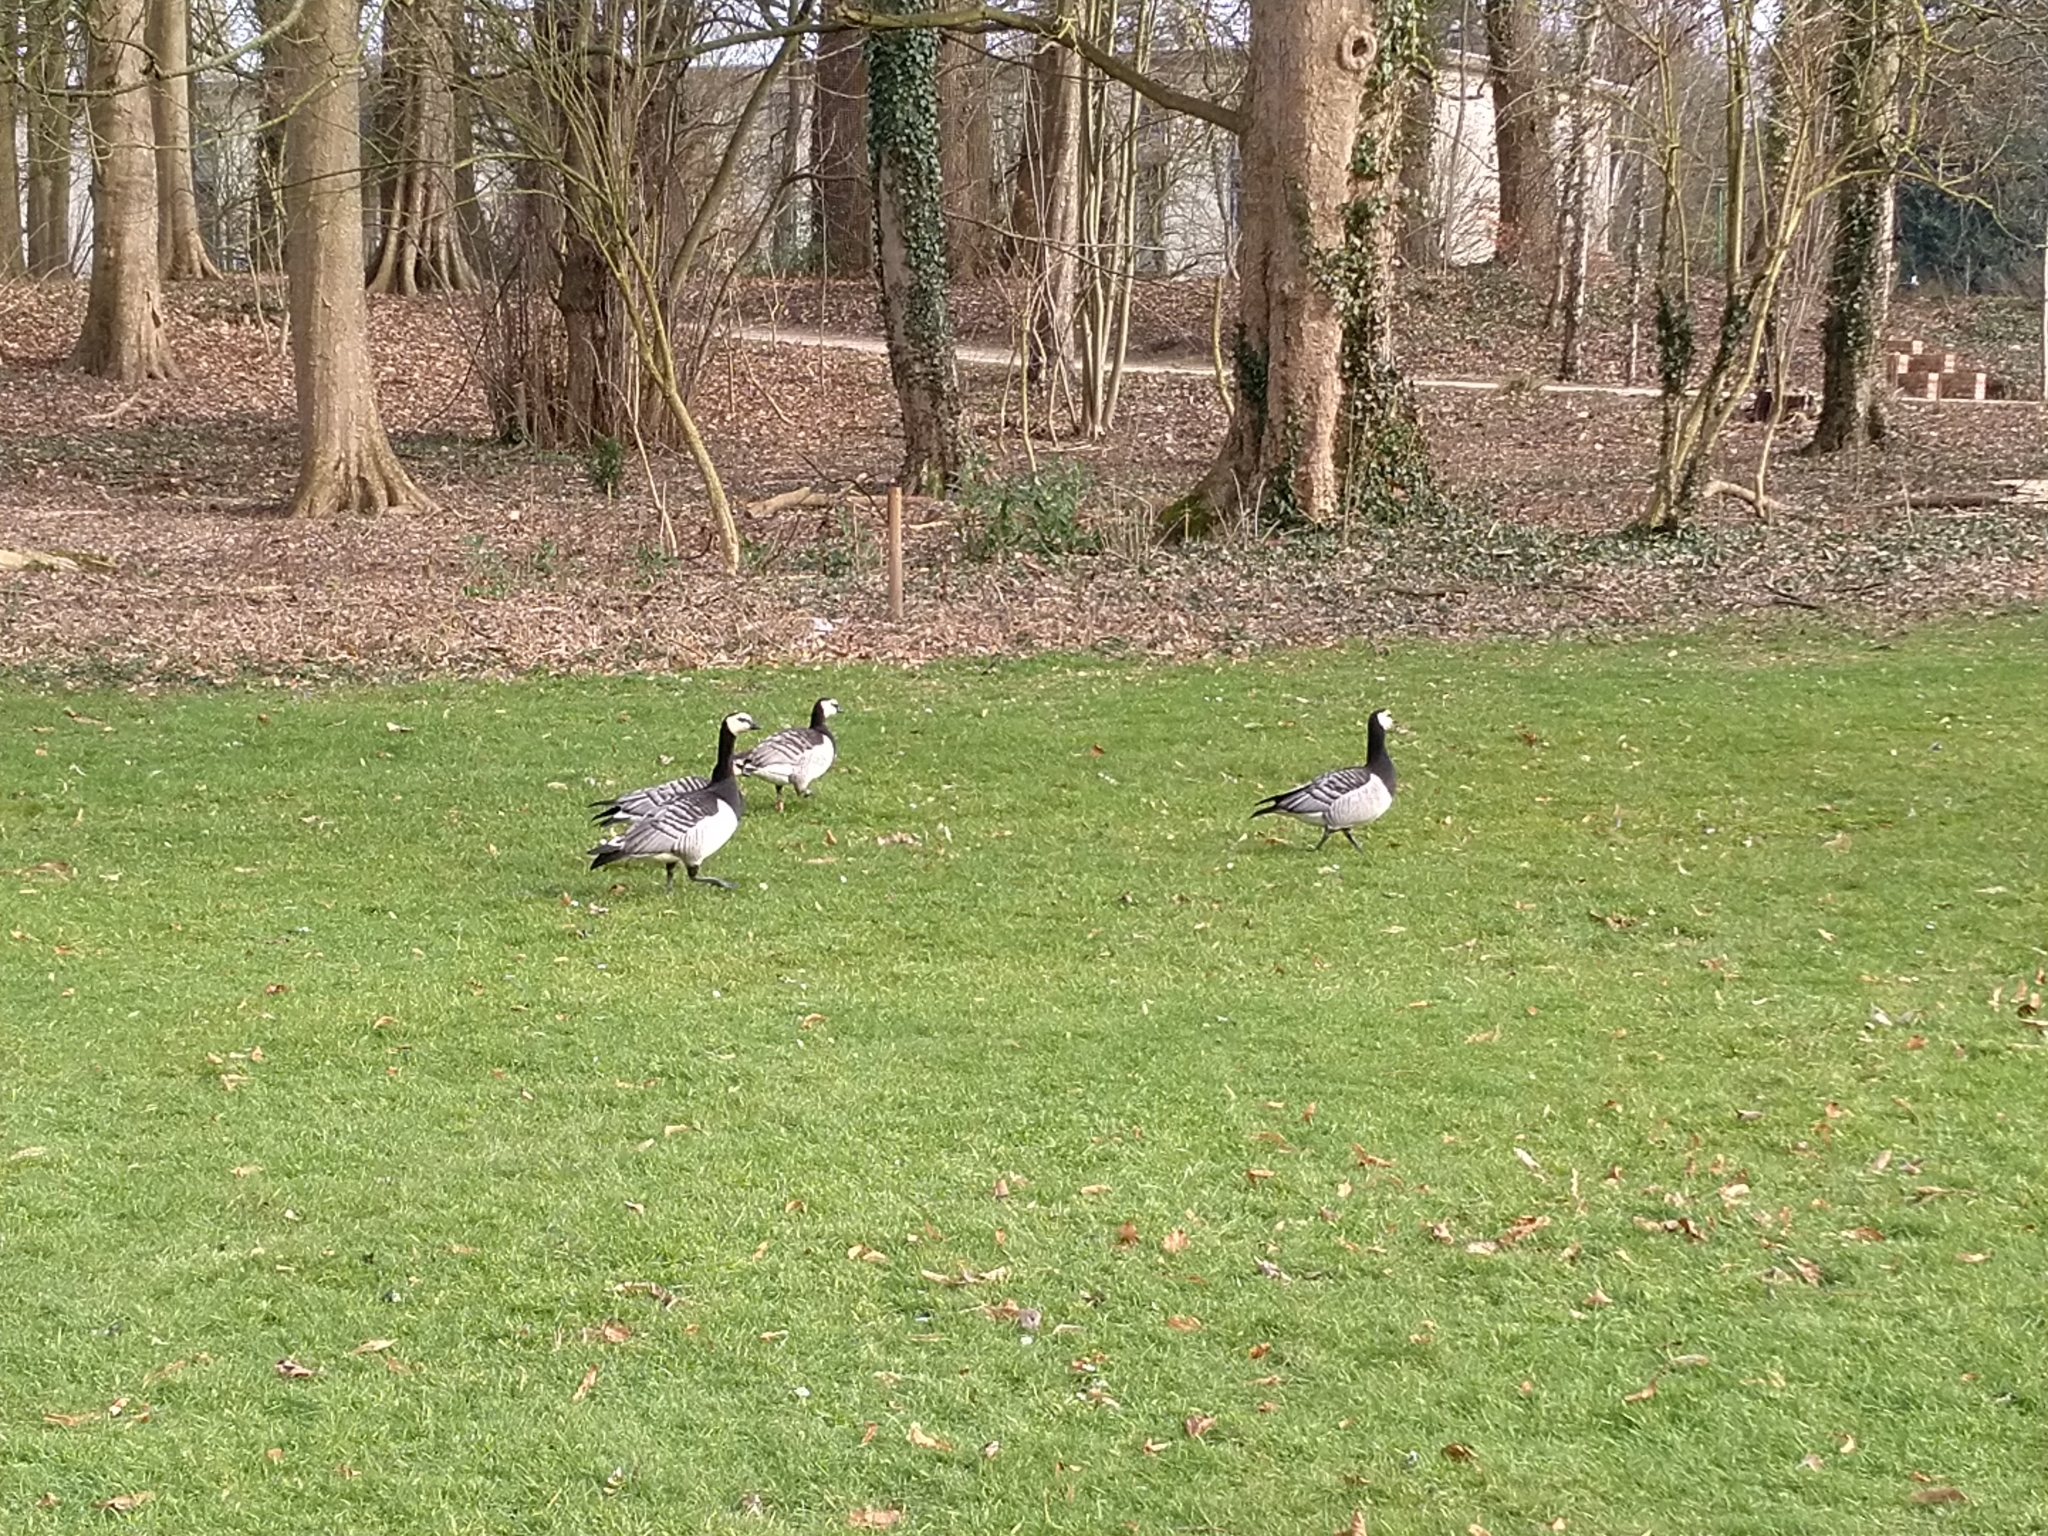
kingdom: Animalia
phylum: Chordata
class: Aves
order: Anseriformes
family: Anatidae
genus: Branta
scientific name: Branta leucopsis
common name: Barnacle goose
